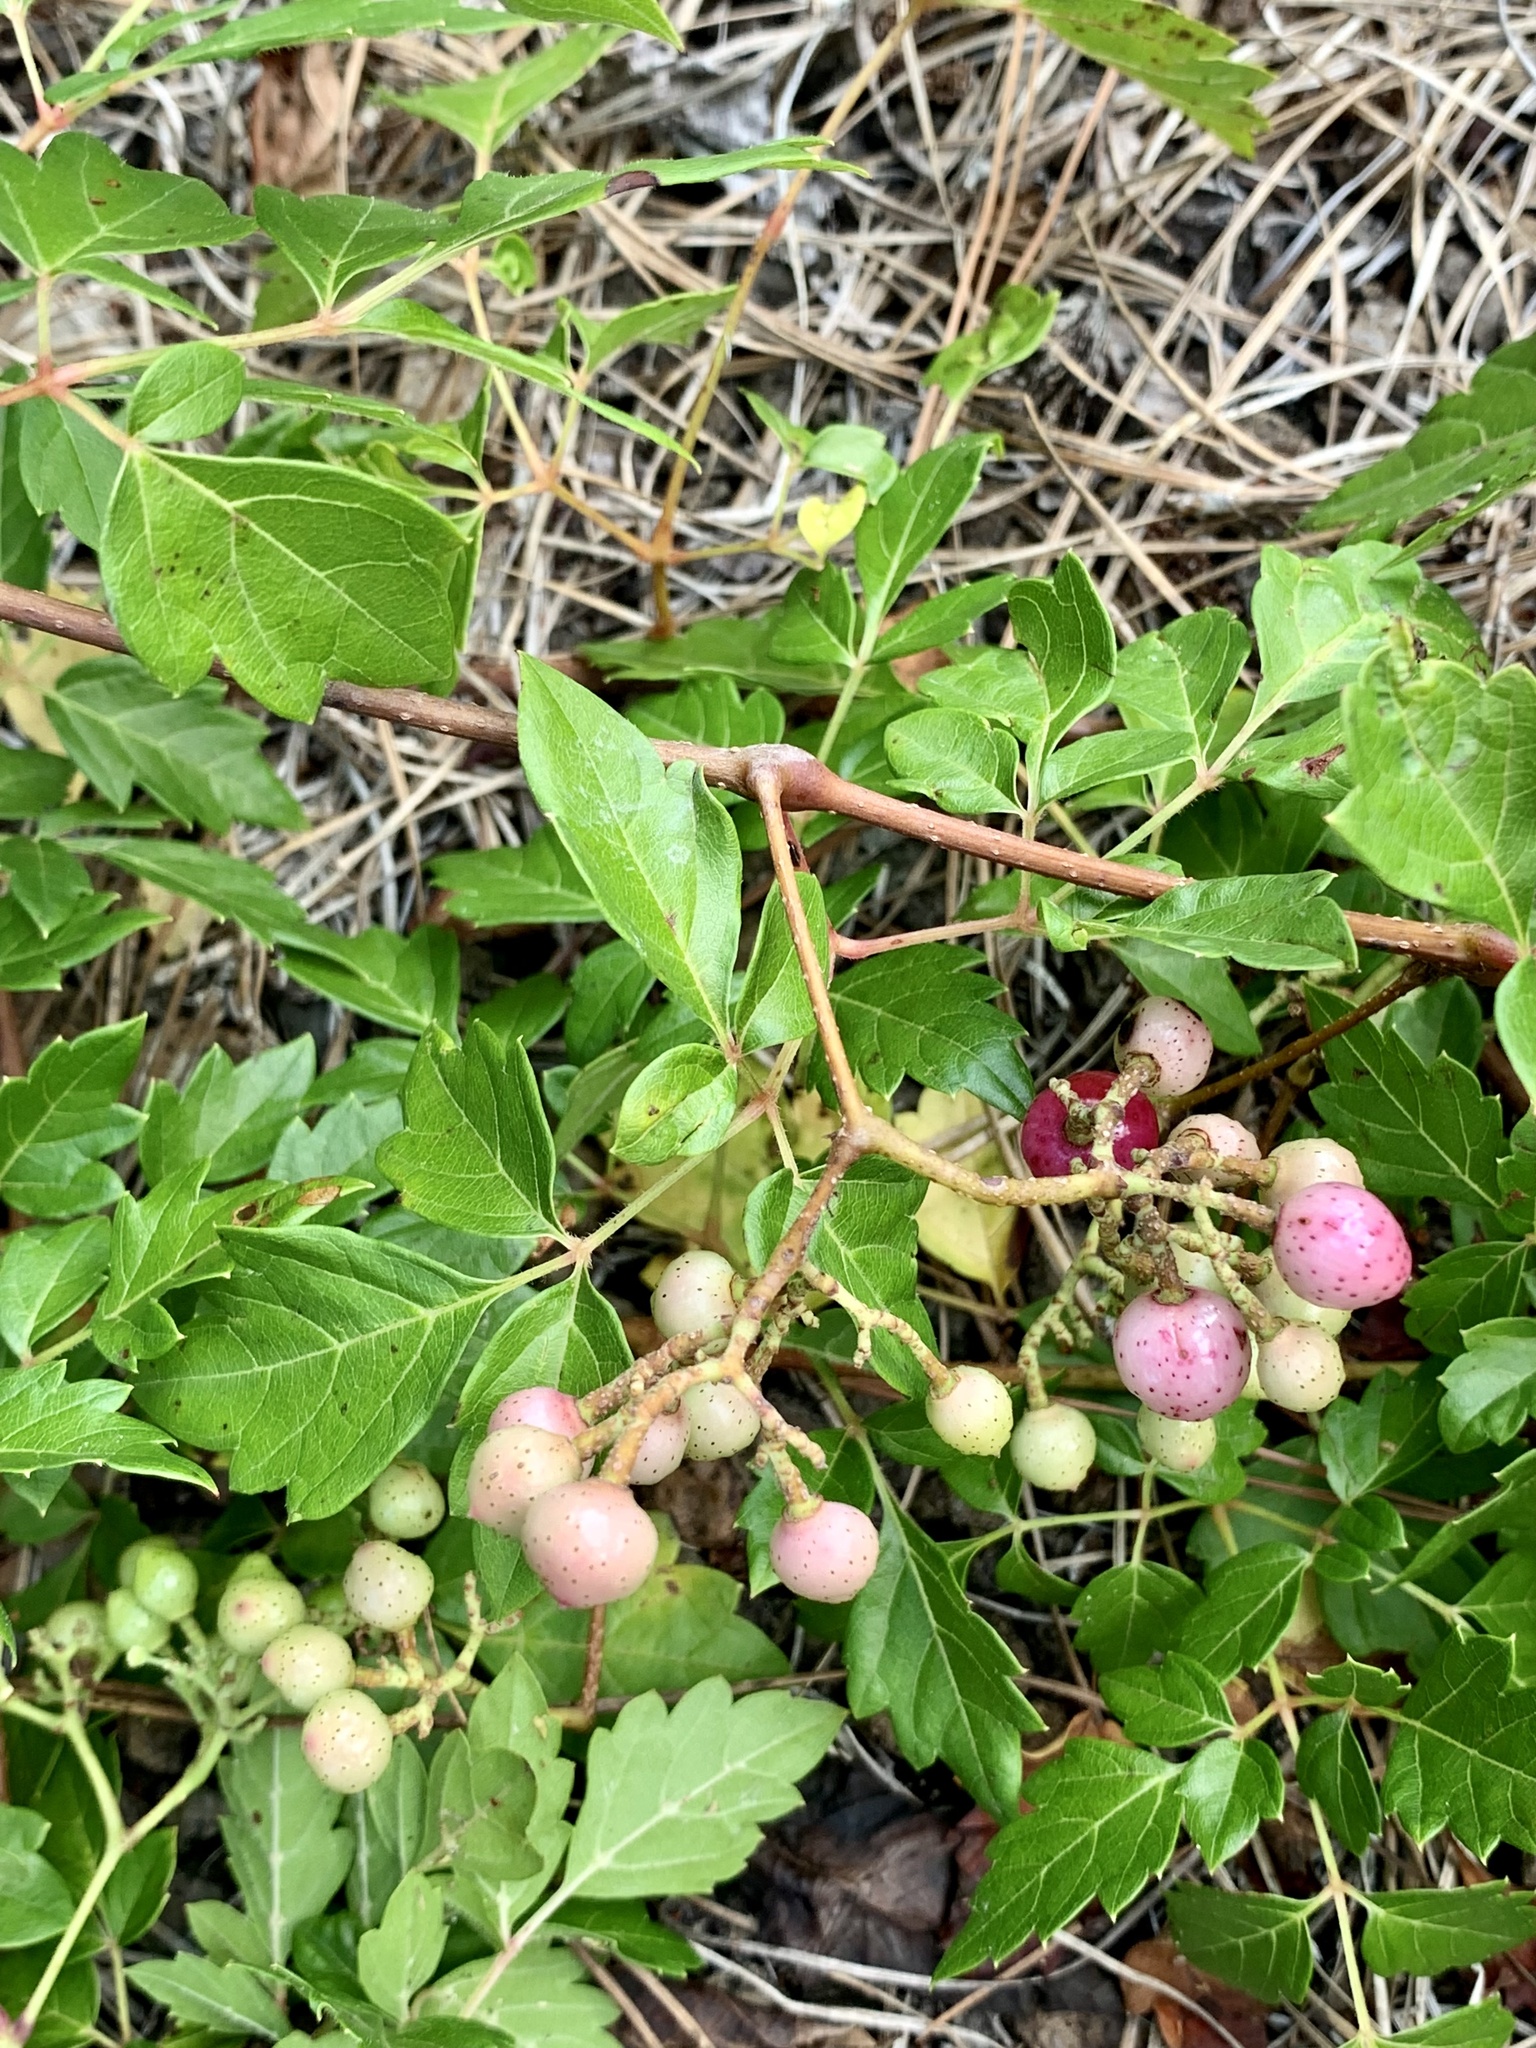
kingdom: Plantae
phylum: Tracheophyta
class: Magnoliopsida
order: Vitales
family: Vitaceae
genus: Nekemias
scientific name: Nekemias arborea
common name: Peppervine
